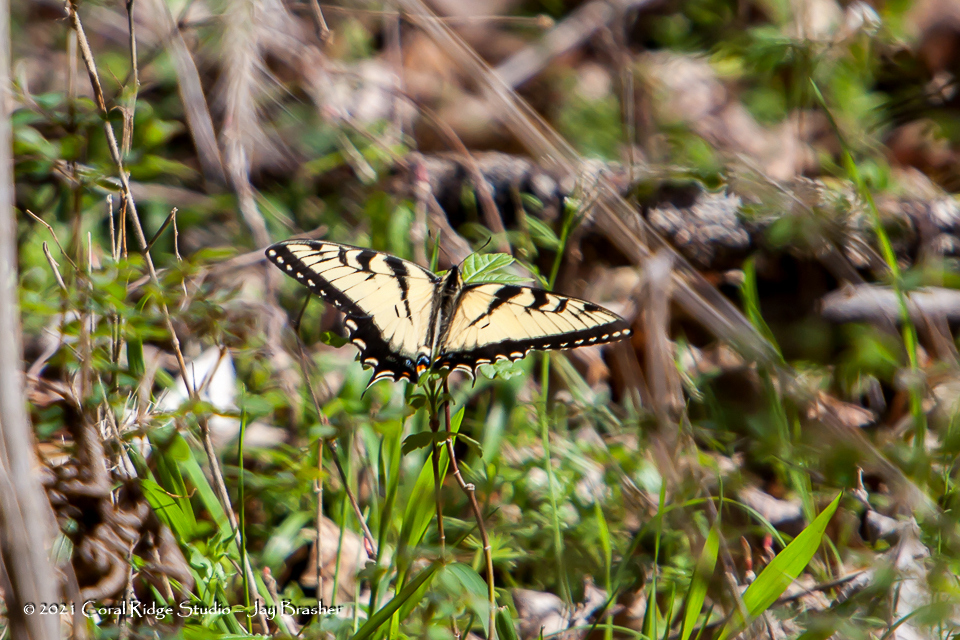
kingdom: Animalia
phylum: Arthropoda
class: Insecta
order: Lepidoptera
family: Papilionidae
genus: Papilio
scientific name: Papilio glaucus
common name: Tiger swallowtail
